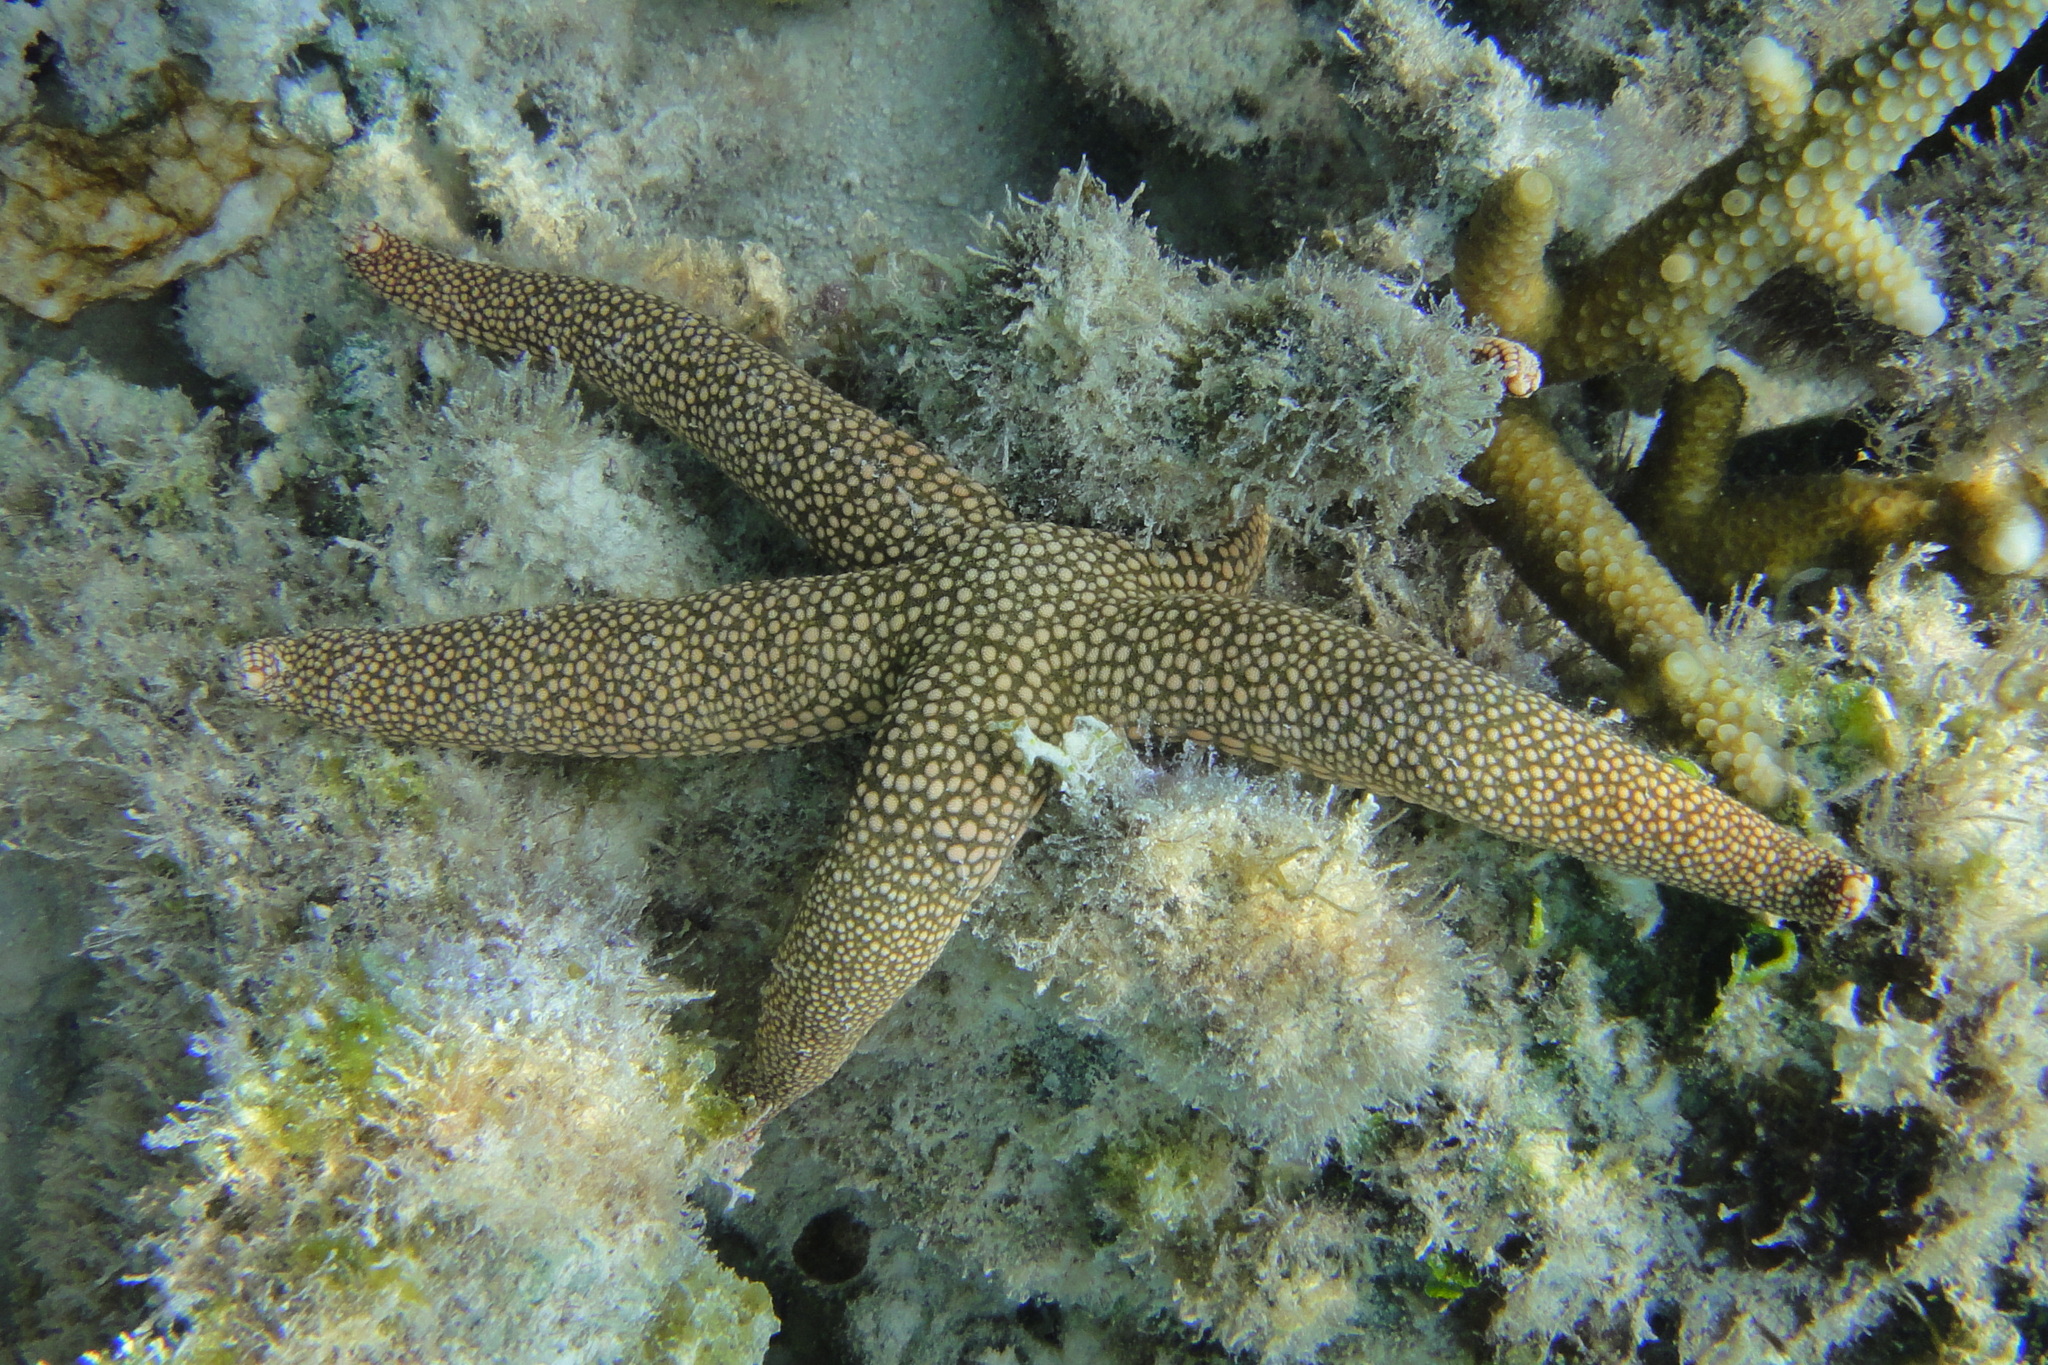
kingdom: Animalia
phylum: Echinodermata
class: Asteroidea
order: Valvatida
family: Ophidiasteridae
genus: Nardoa
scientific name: Nardoa novaecaledoniae
